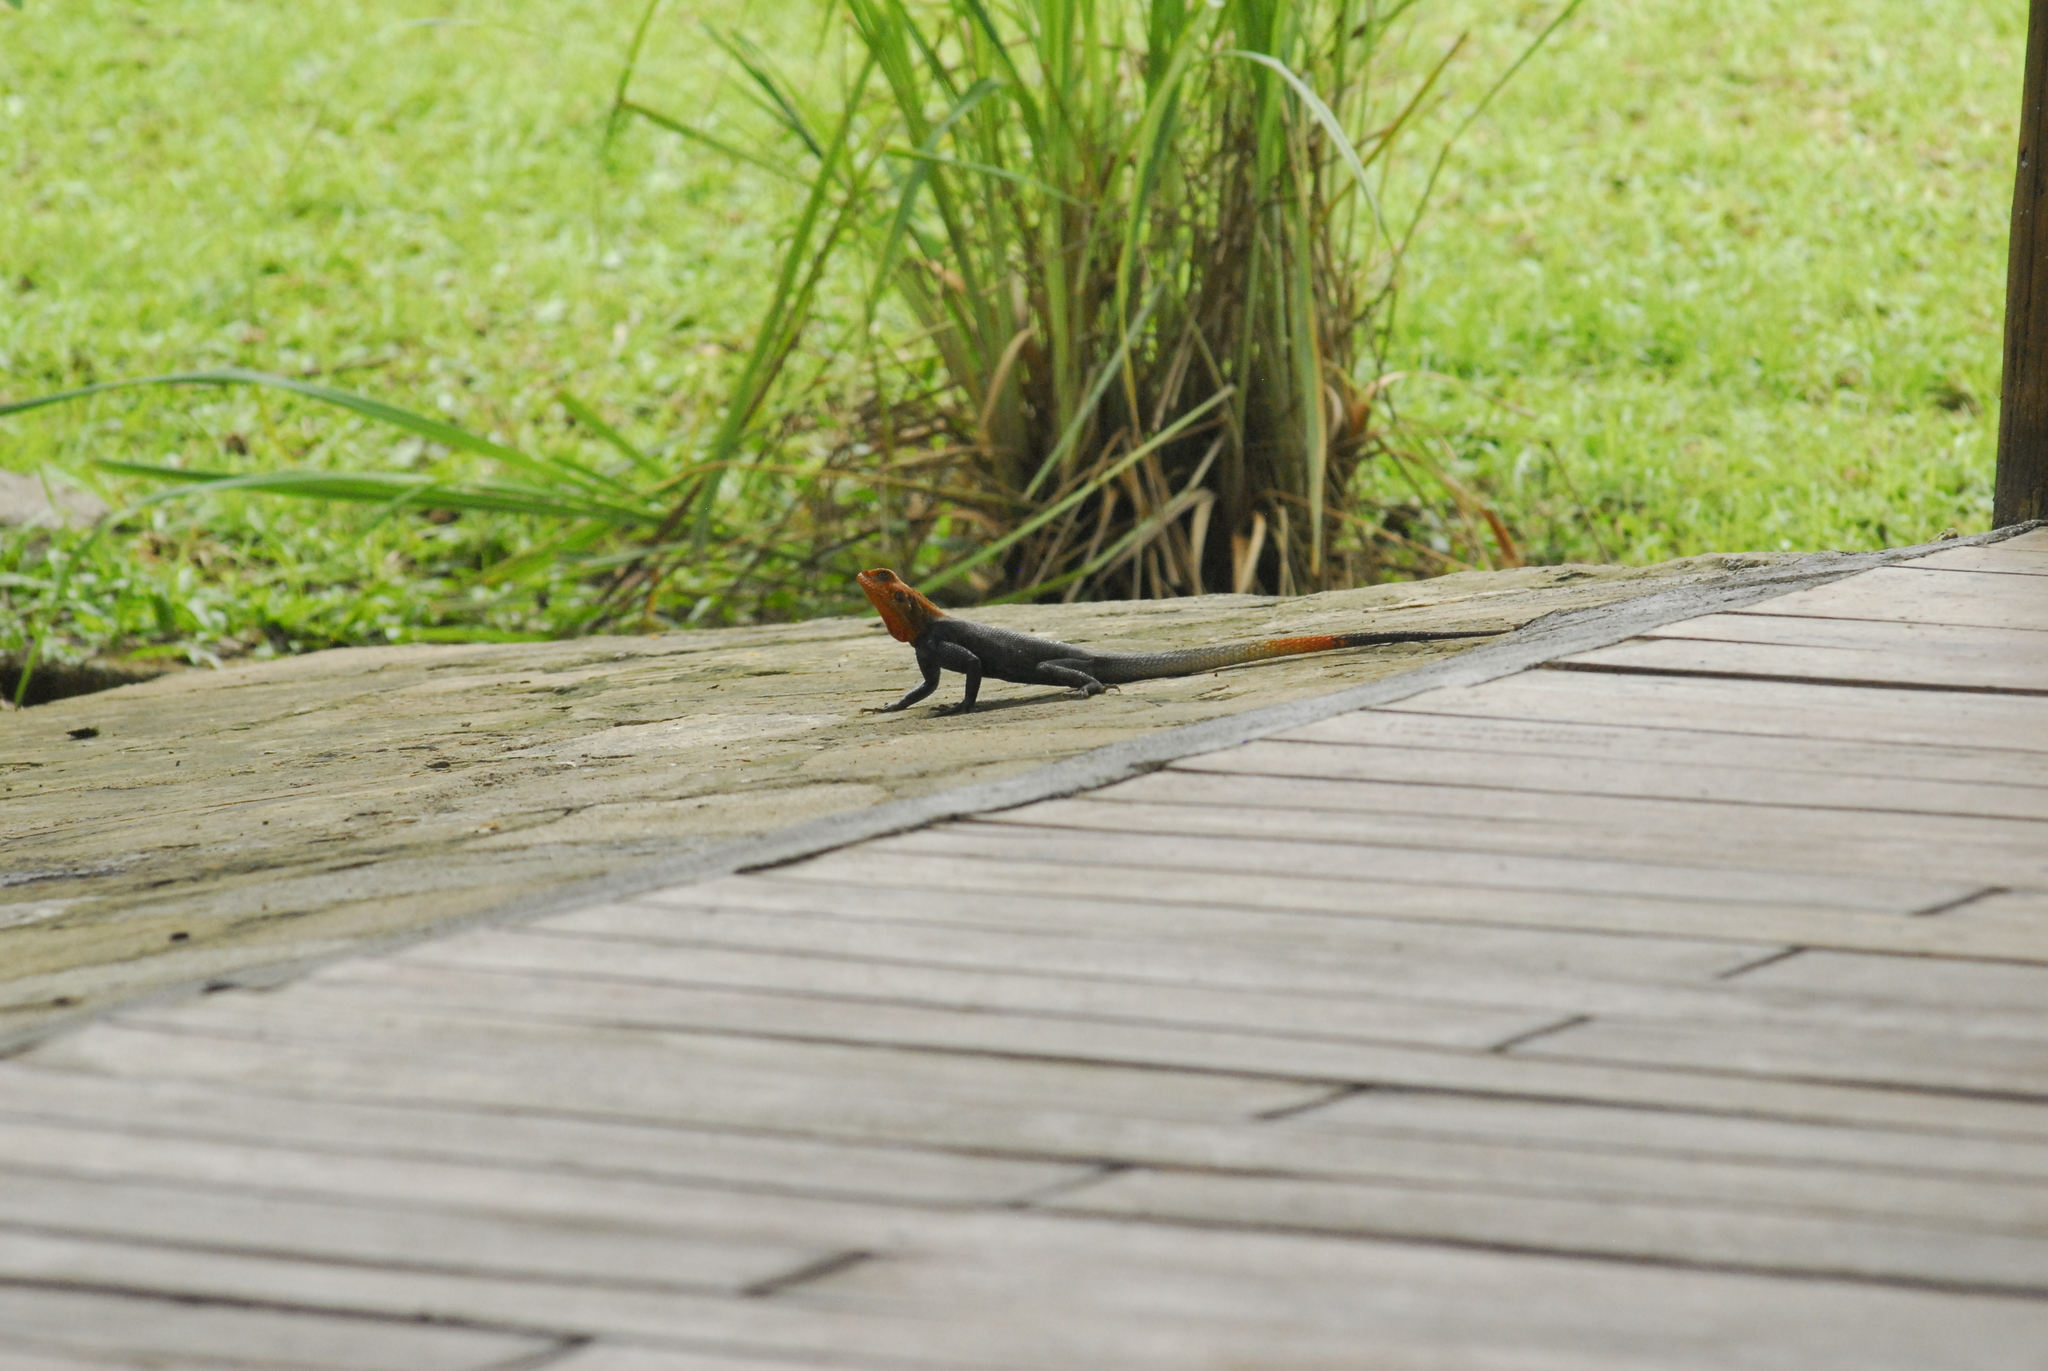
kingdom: Animalia
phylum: Chordata
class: Squamata
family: Agamidae
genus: Agama
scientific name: Agama agama
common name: Common agama
